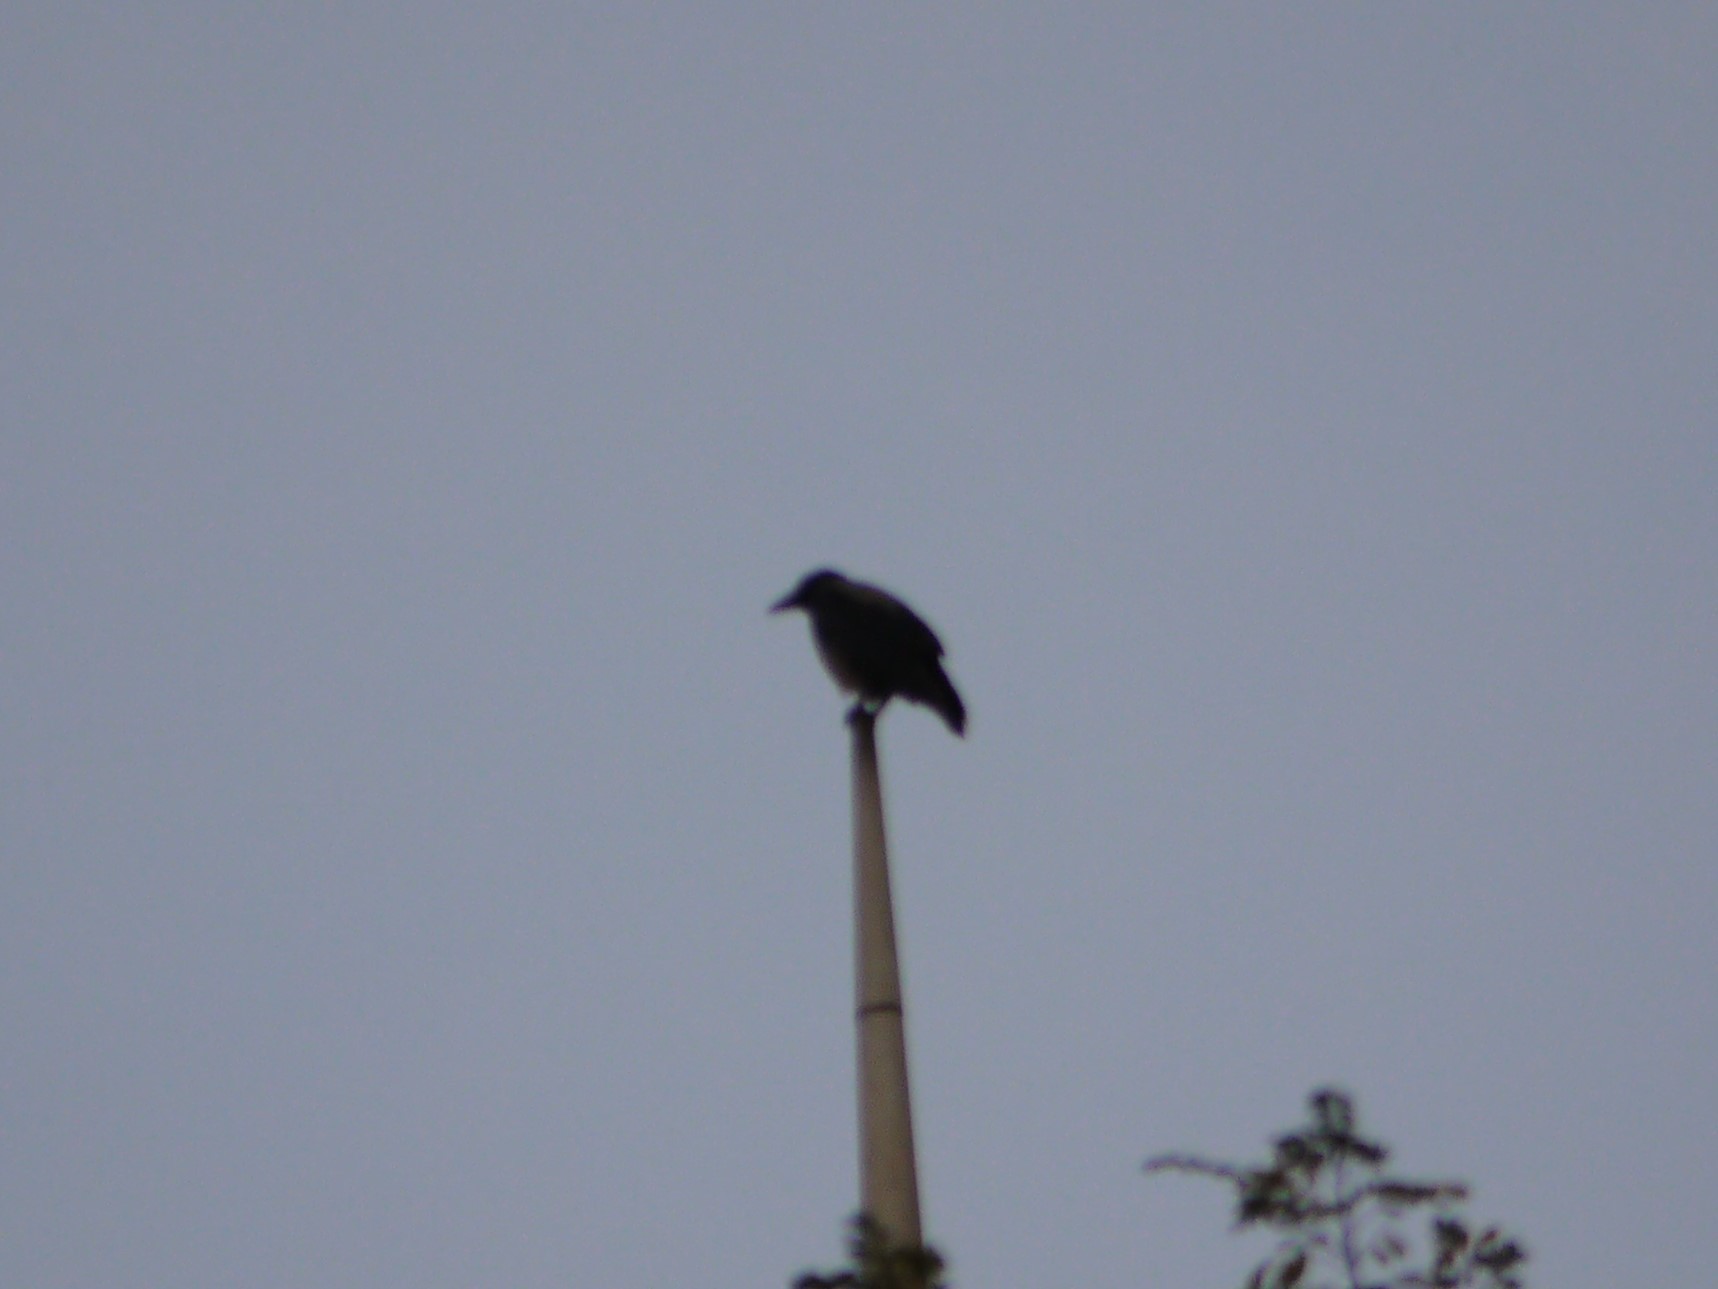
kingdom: Animalia
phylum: Chordata
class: Aves
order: Passeriformes
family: Corvidae
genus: Corvus
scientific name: Corvus cornix
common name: Hooded crow
